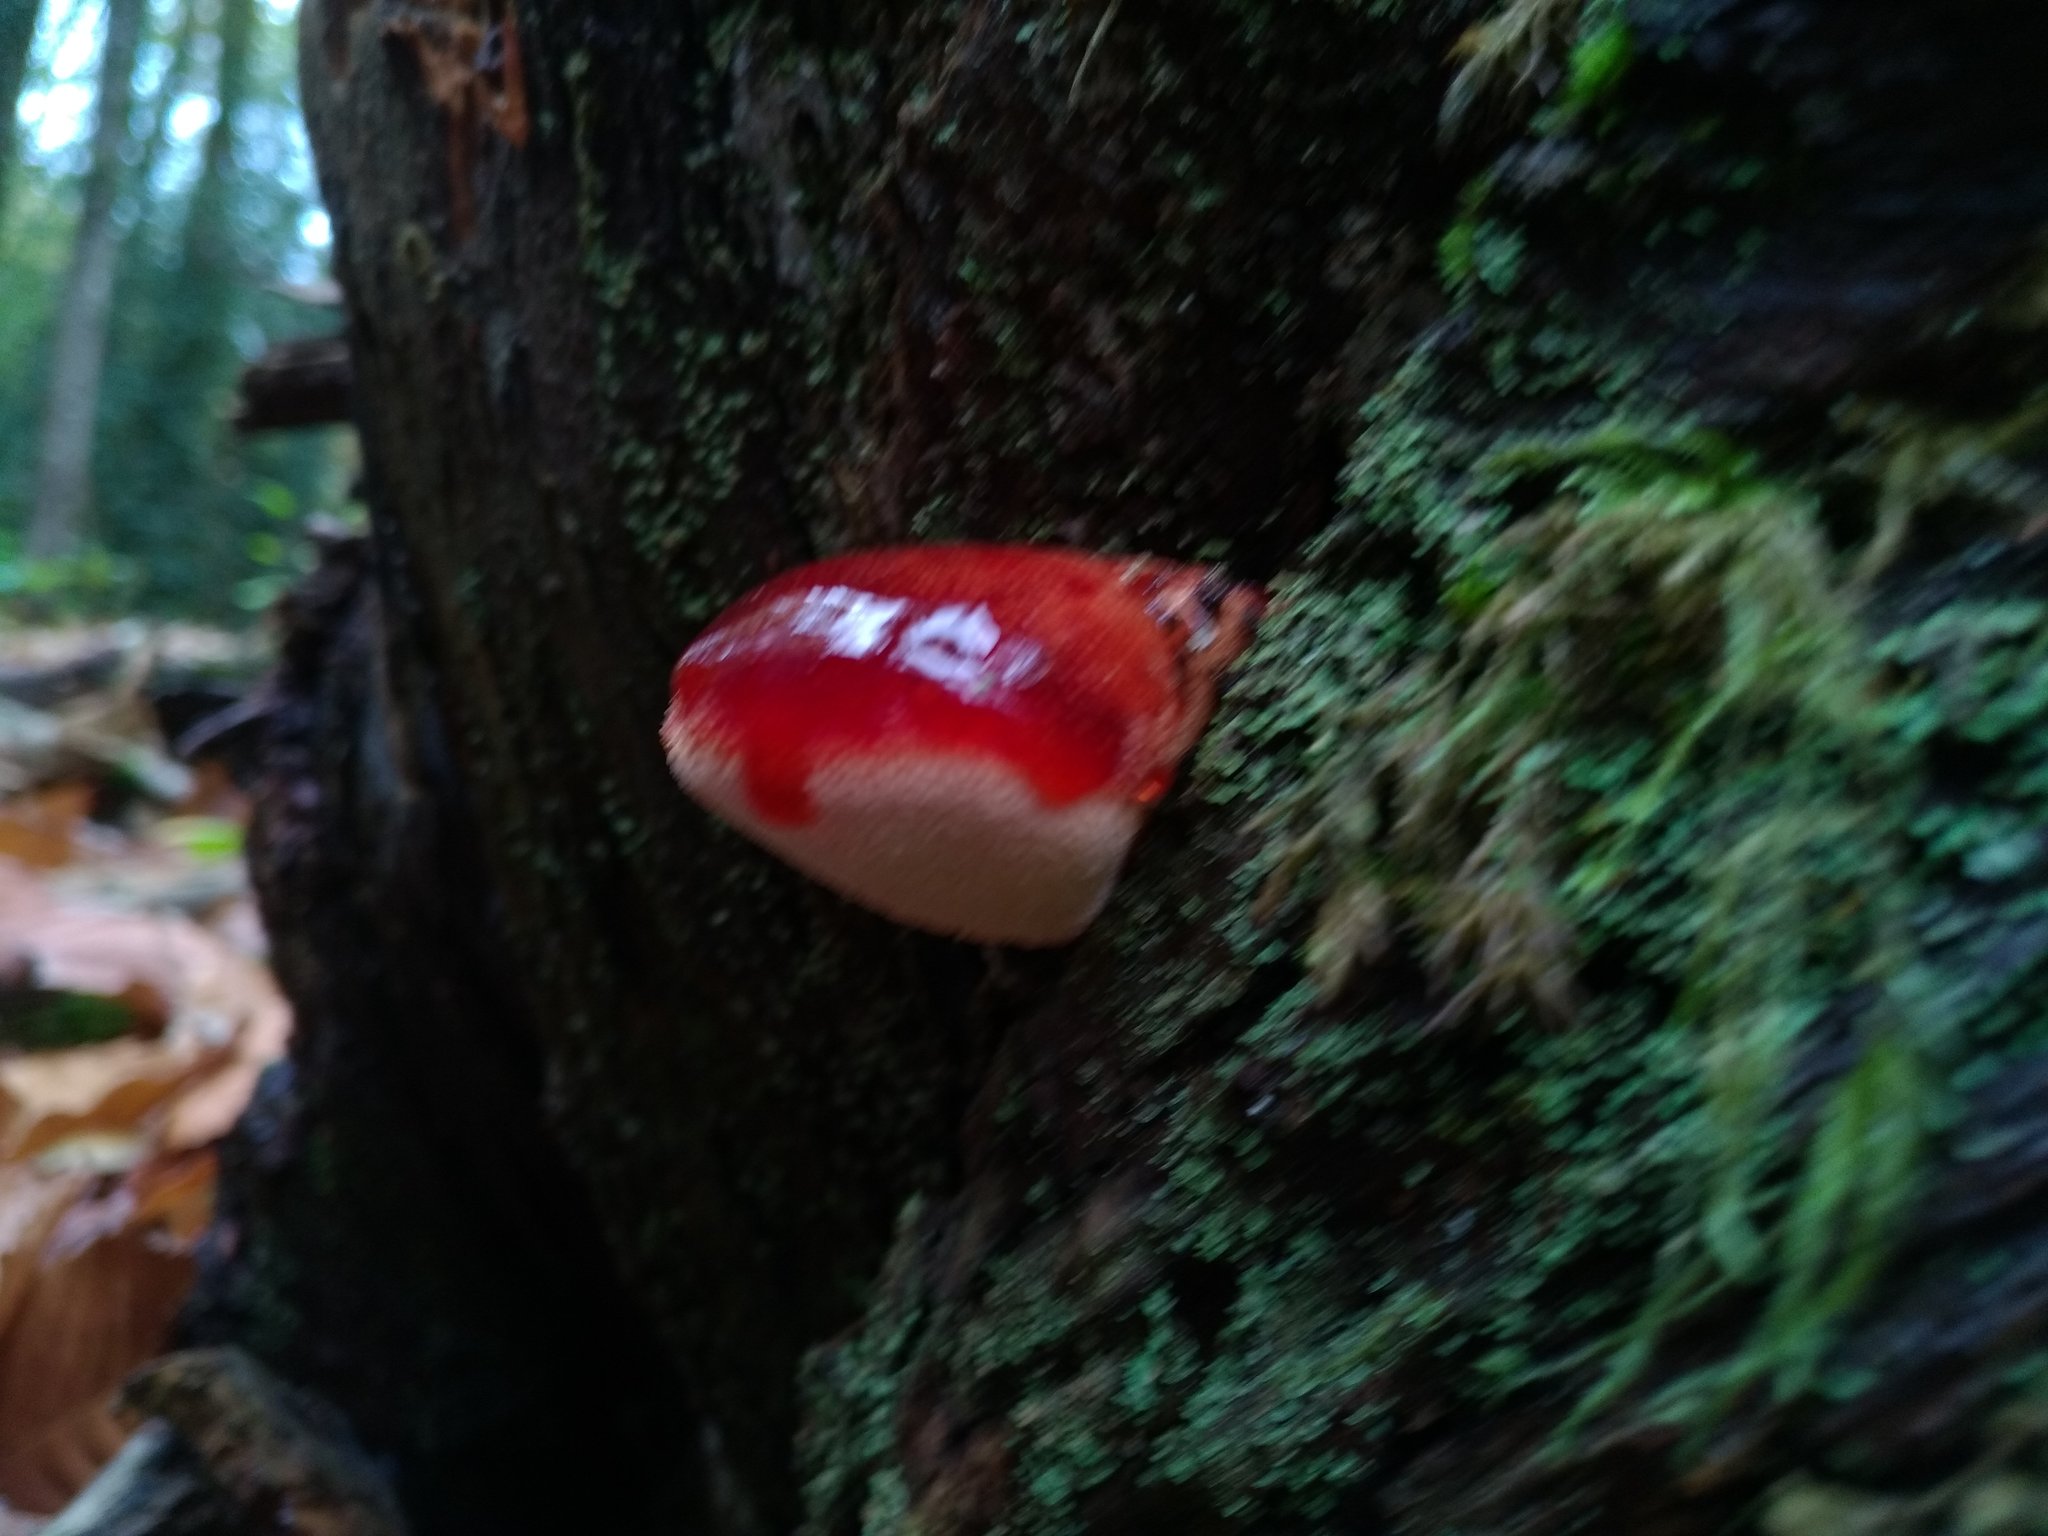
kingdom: Fungi
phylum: Basidiomycota
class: Agaricomycetes
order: Agaricales
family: Fistulinaceae
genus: Fistulina
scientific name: Fistulina hepatica
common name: Beef-steak fungus
